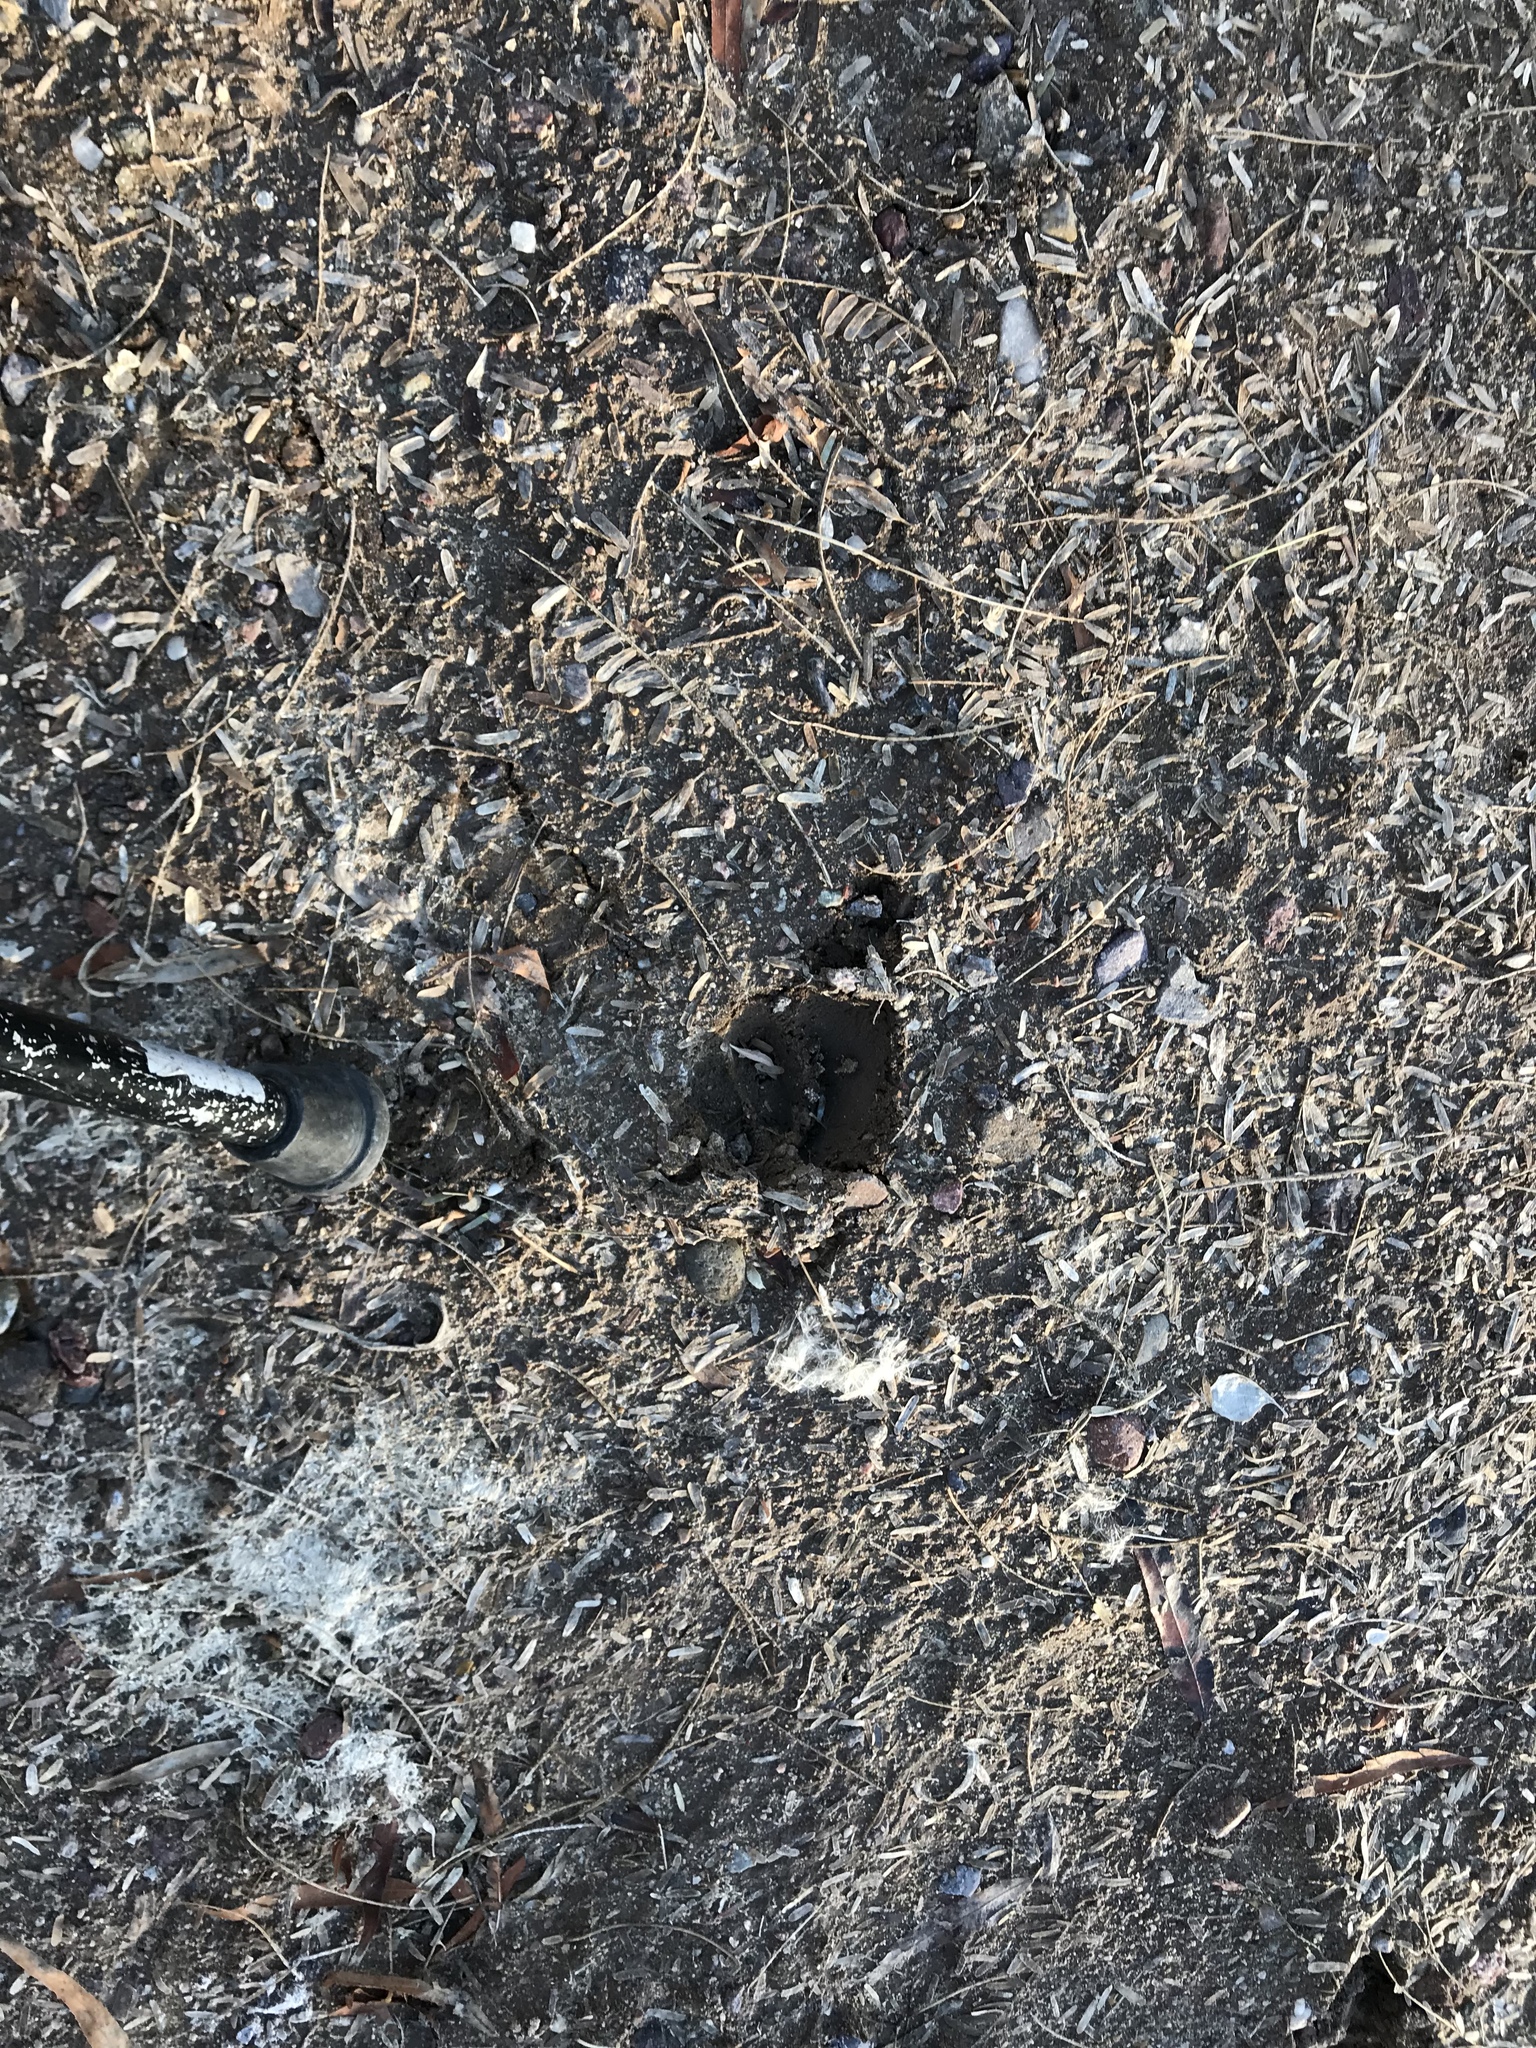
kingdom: Animalia
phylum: Chordata
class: Mammalia
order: Artiodactyla
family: Tayassuidae
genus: Pecari
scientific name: Pecari tajacu
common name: Collared peccary
